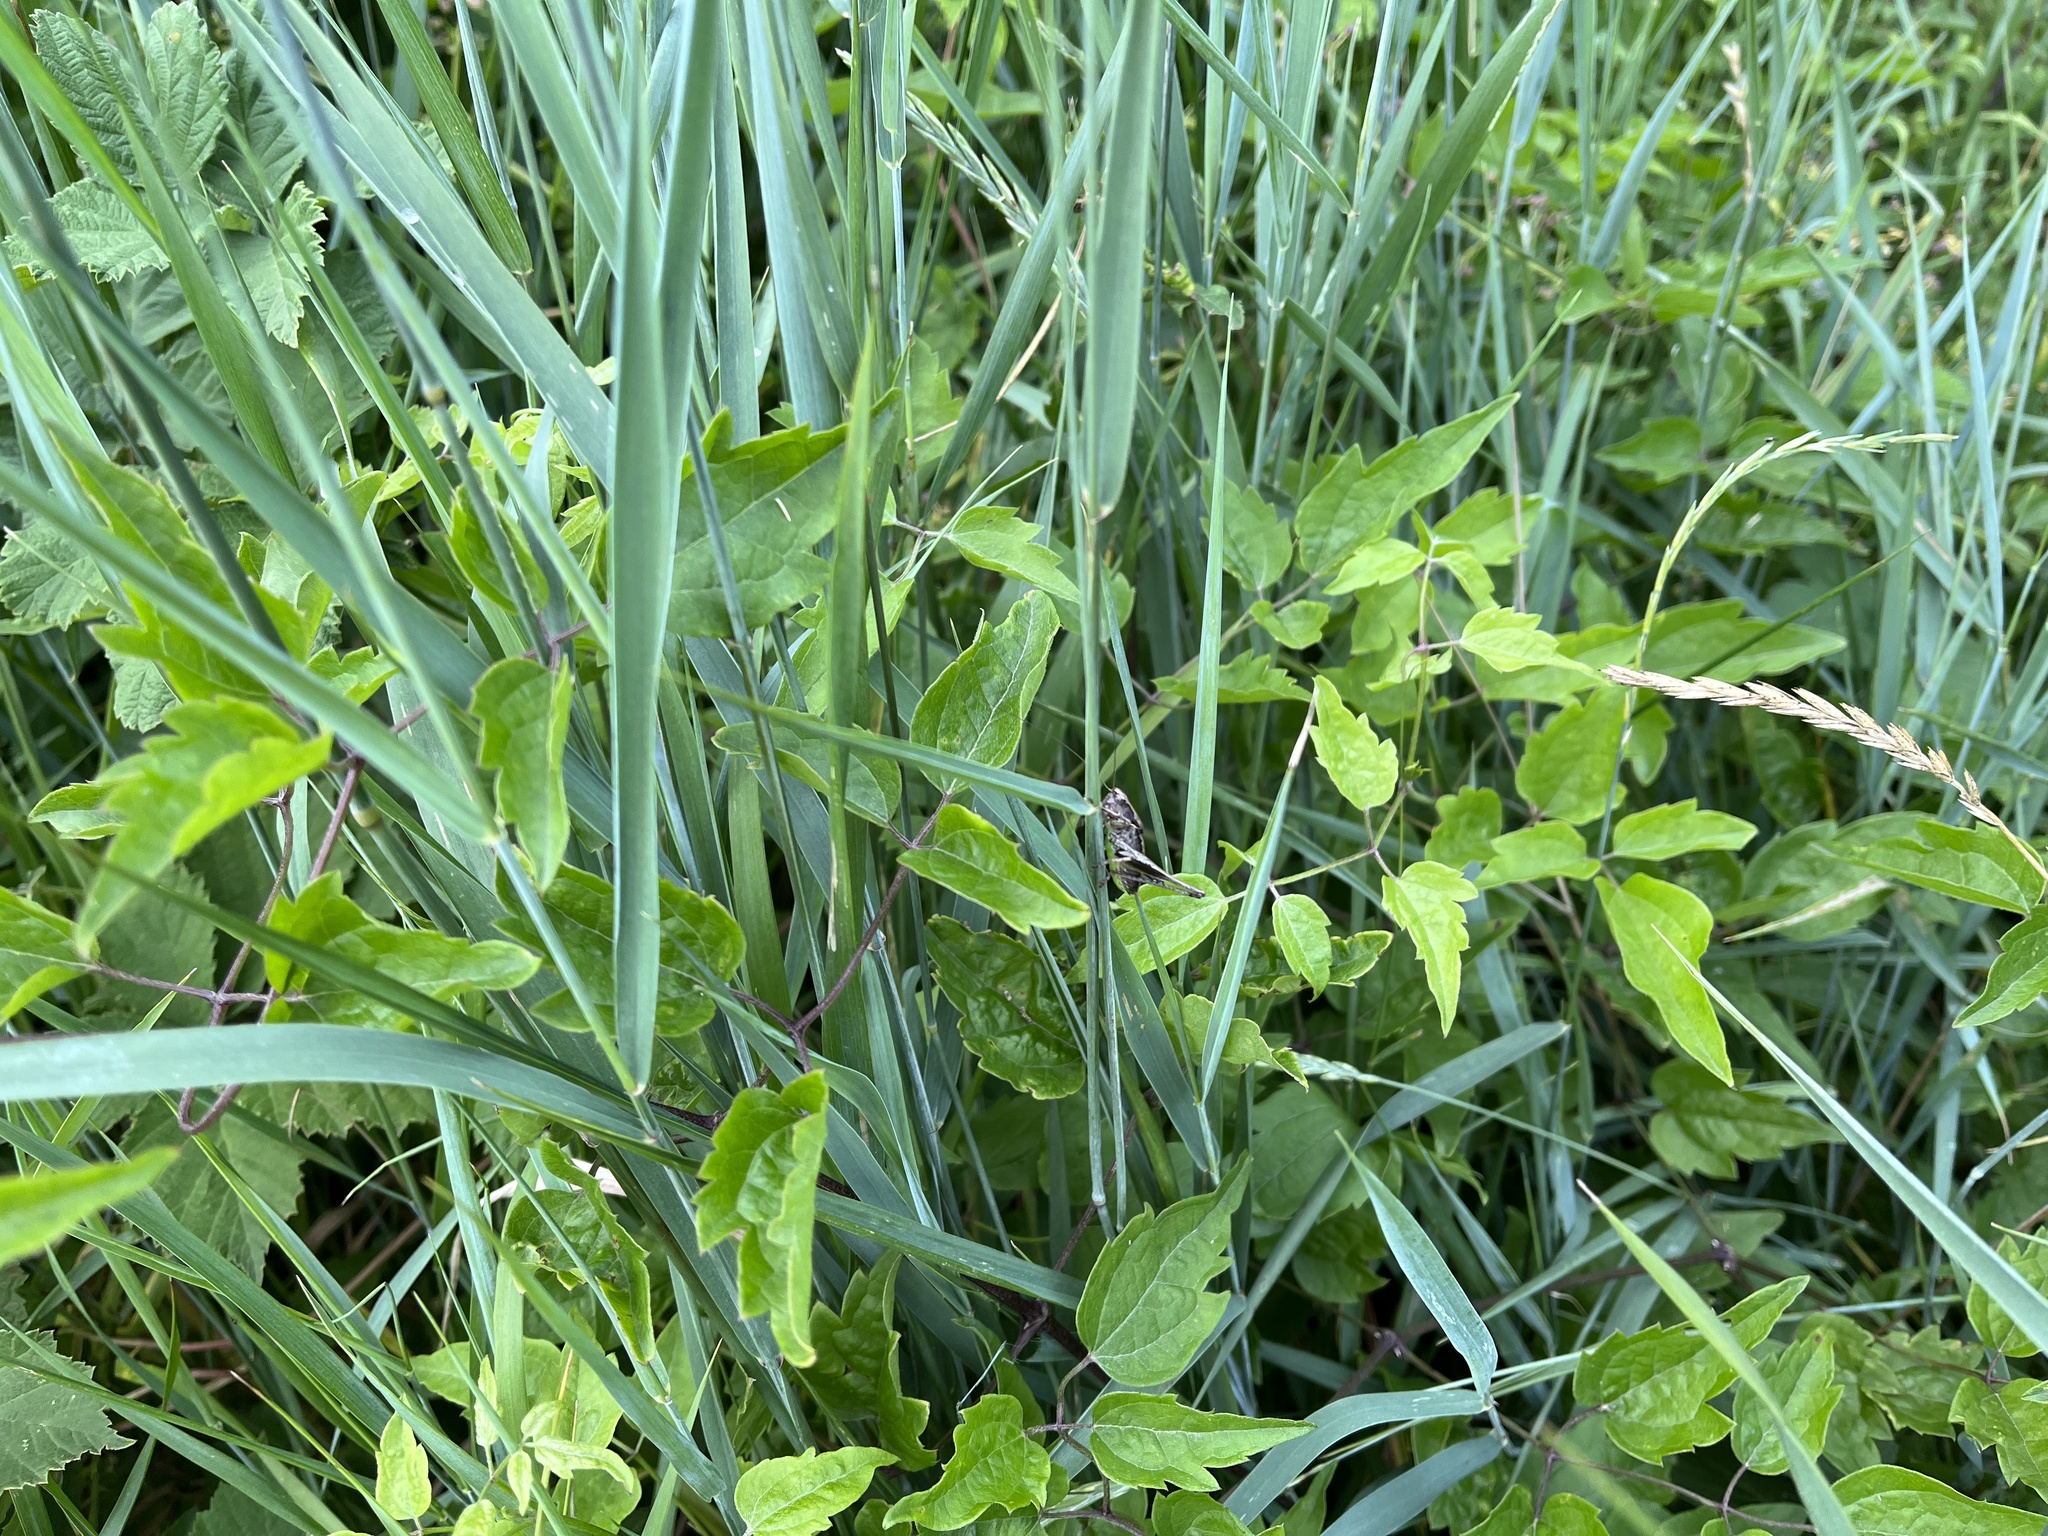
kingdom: Plantae
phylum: Tracheophyta
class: Liliopsida
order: Poales
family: Poaceae
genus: Elymus
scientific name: Elymus repens
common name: Quackgrass
